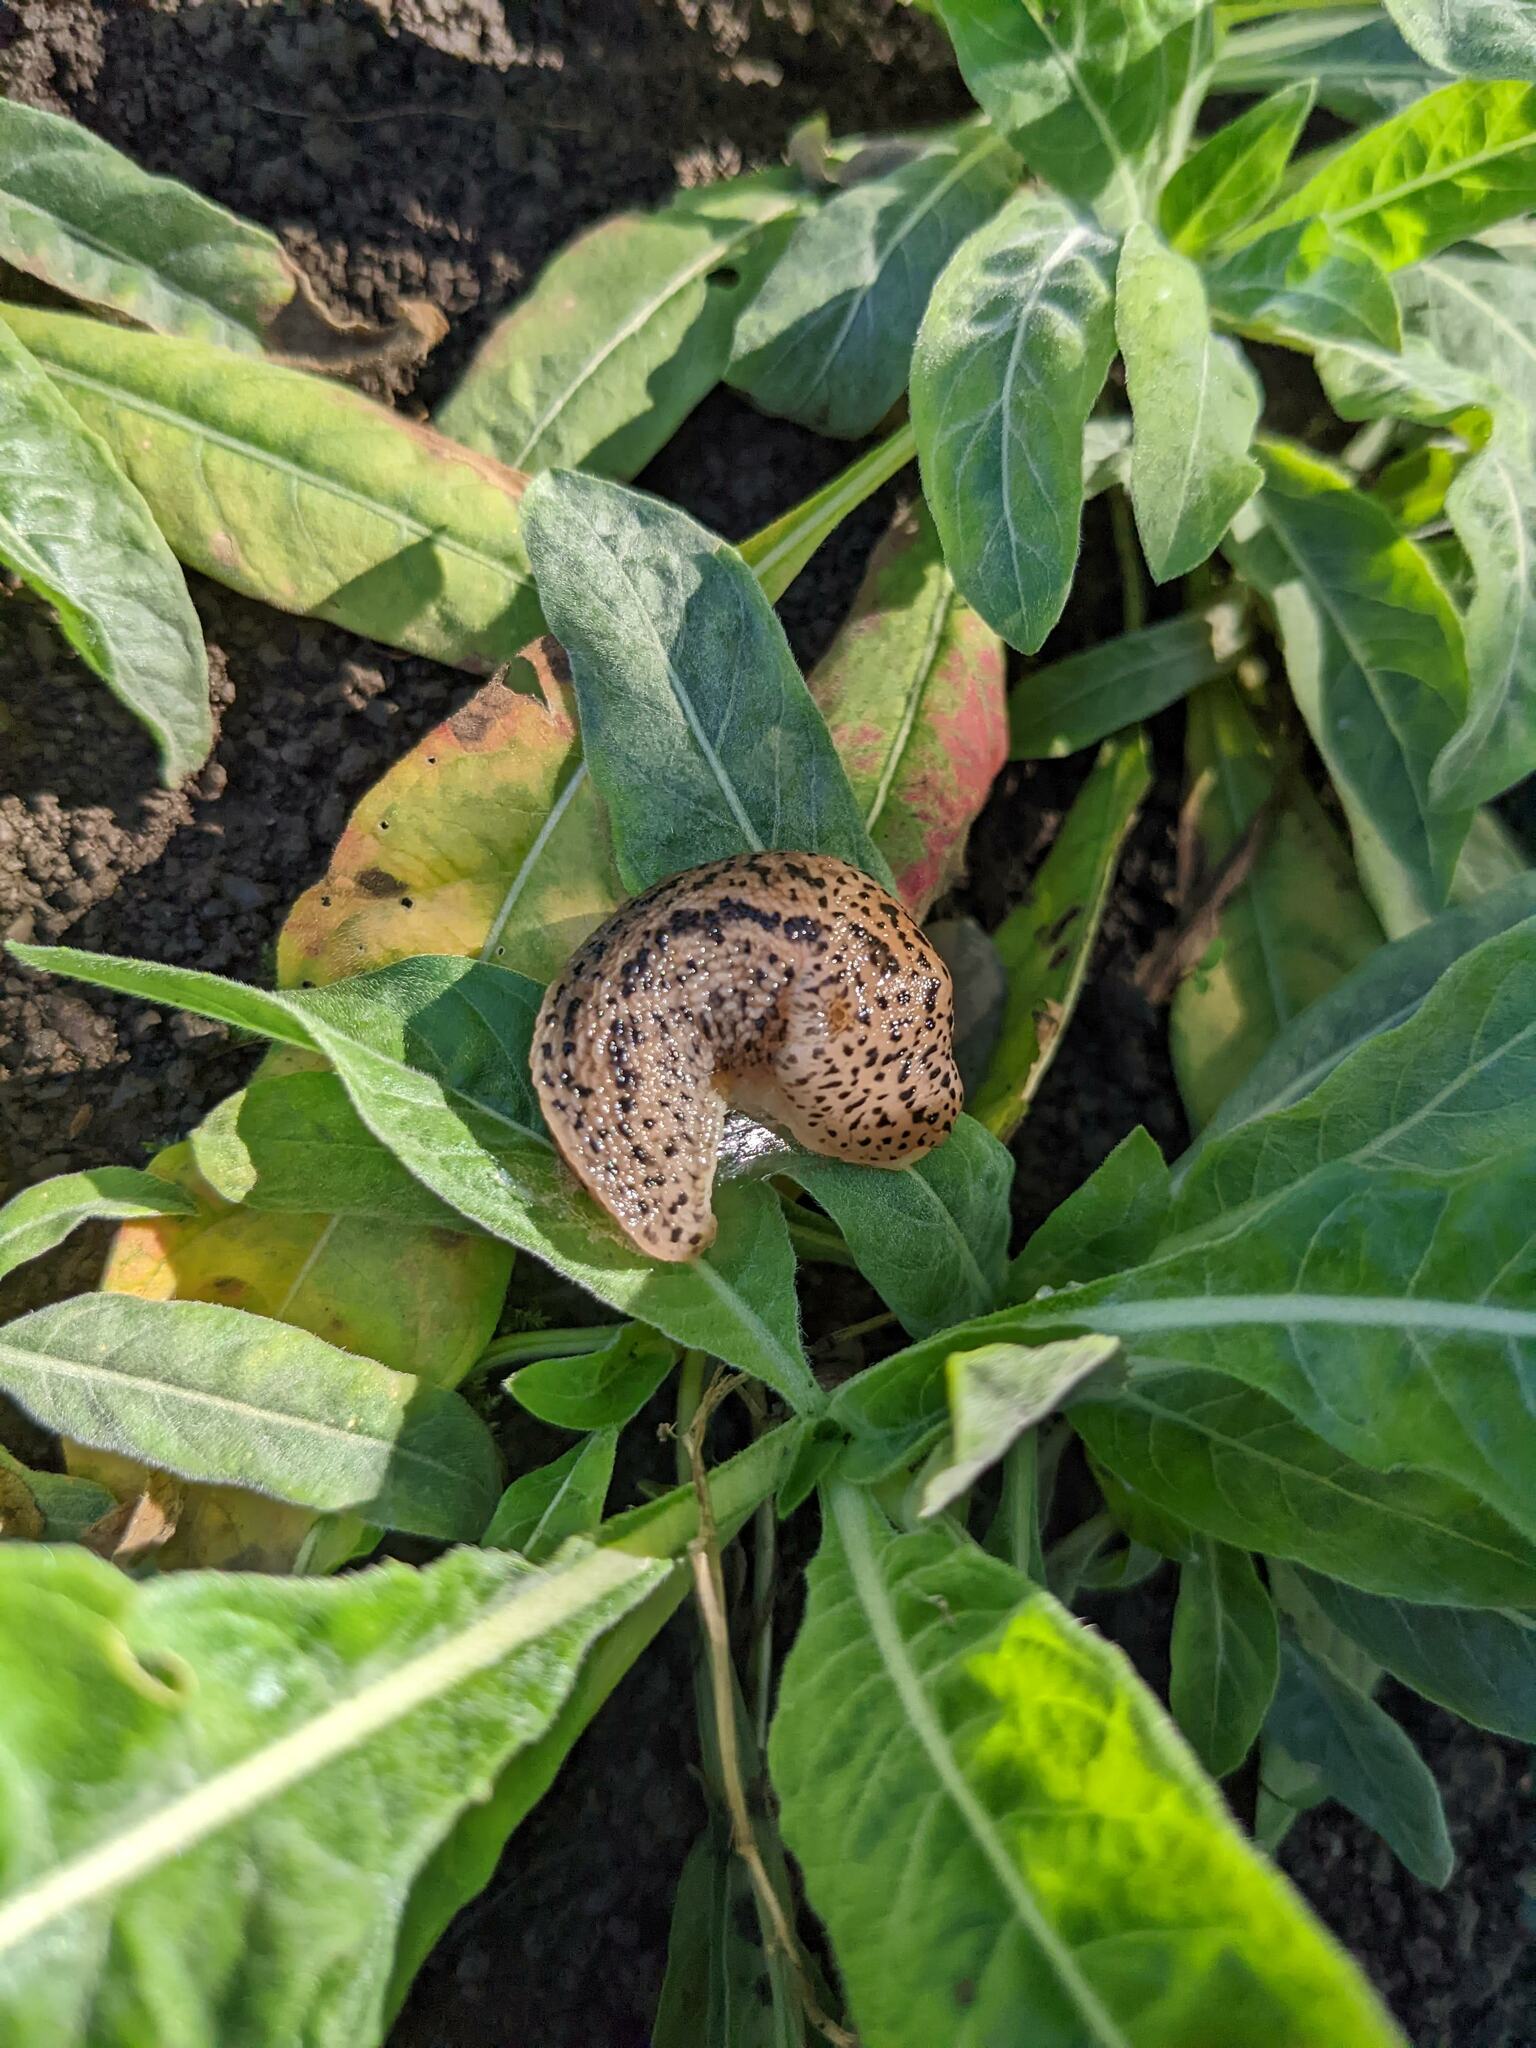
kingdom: Animalia
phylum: Mollusca
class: Gastropoda
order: Stylommatophora
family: Limacidae
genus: Limax
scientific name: Limax maximus
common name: Great grey slug
